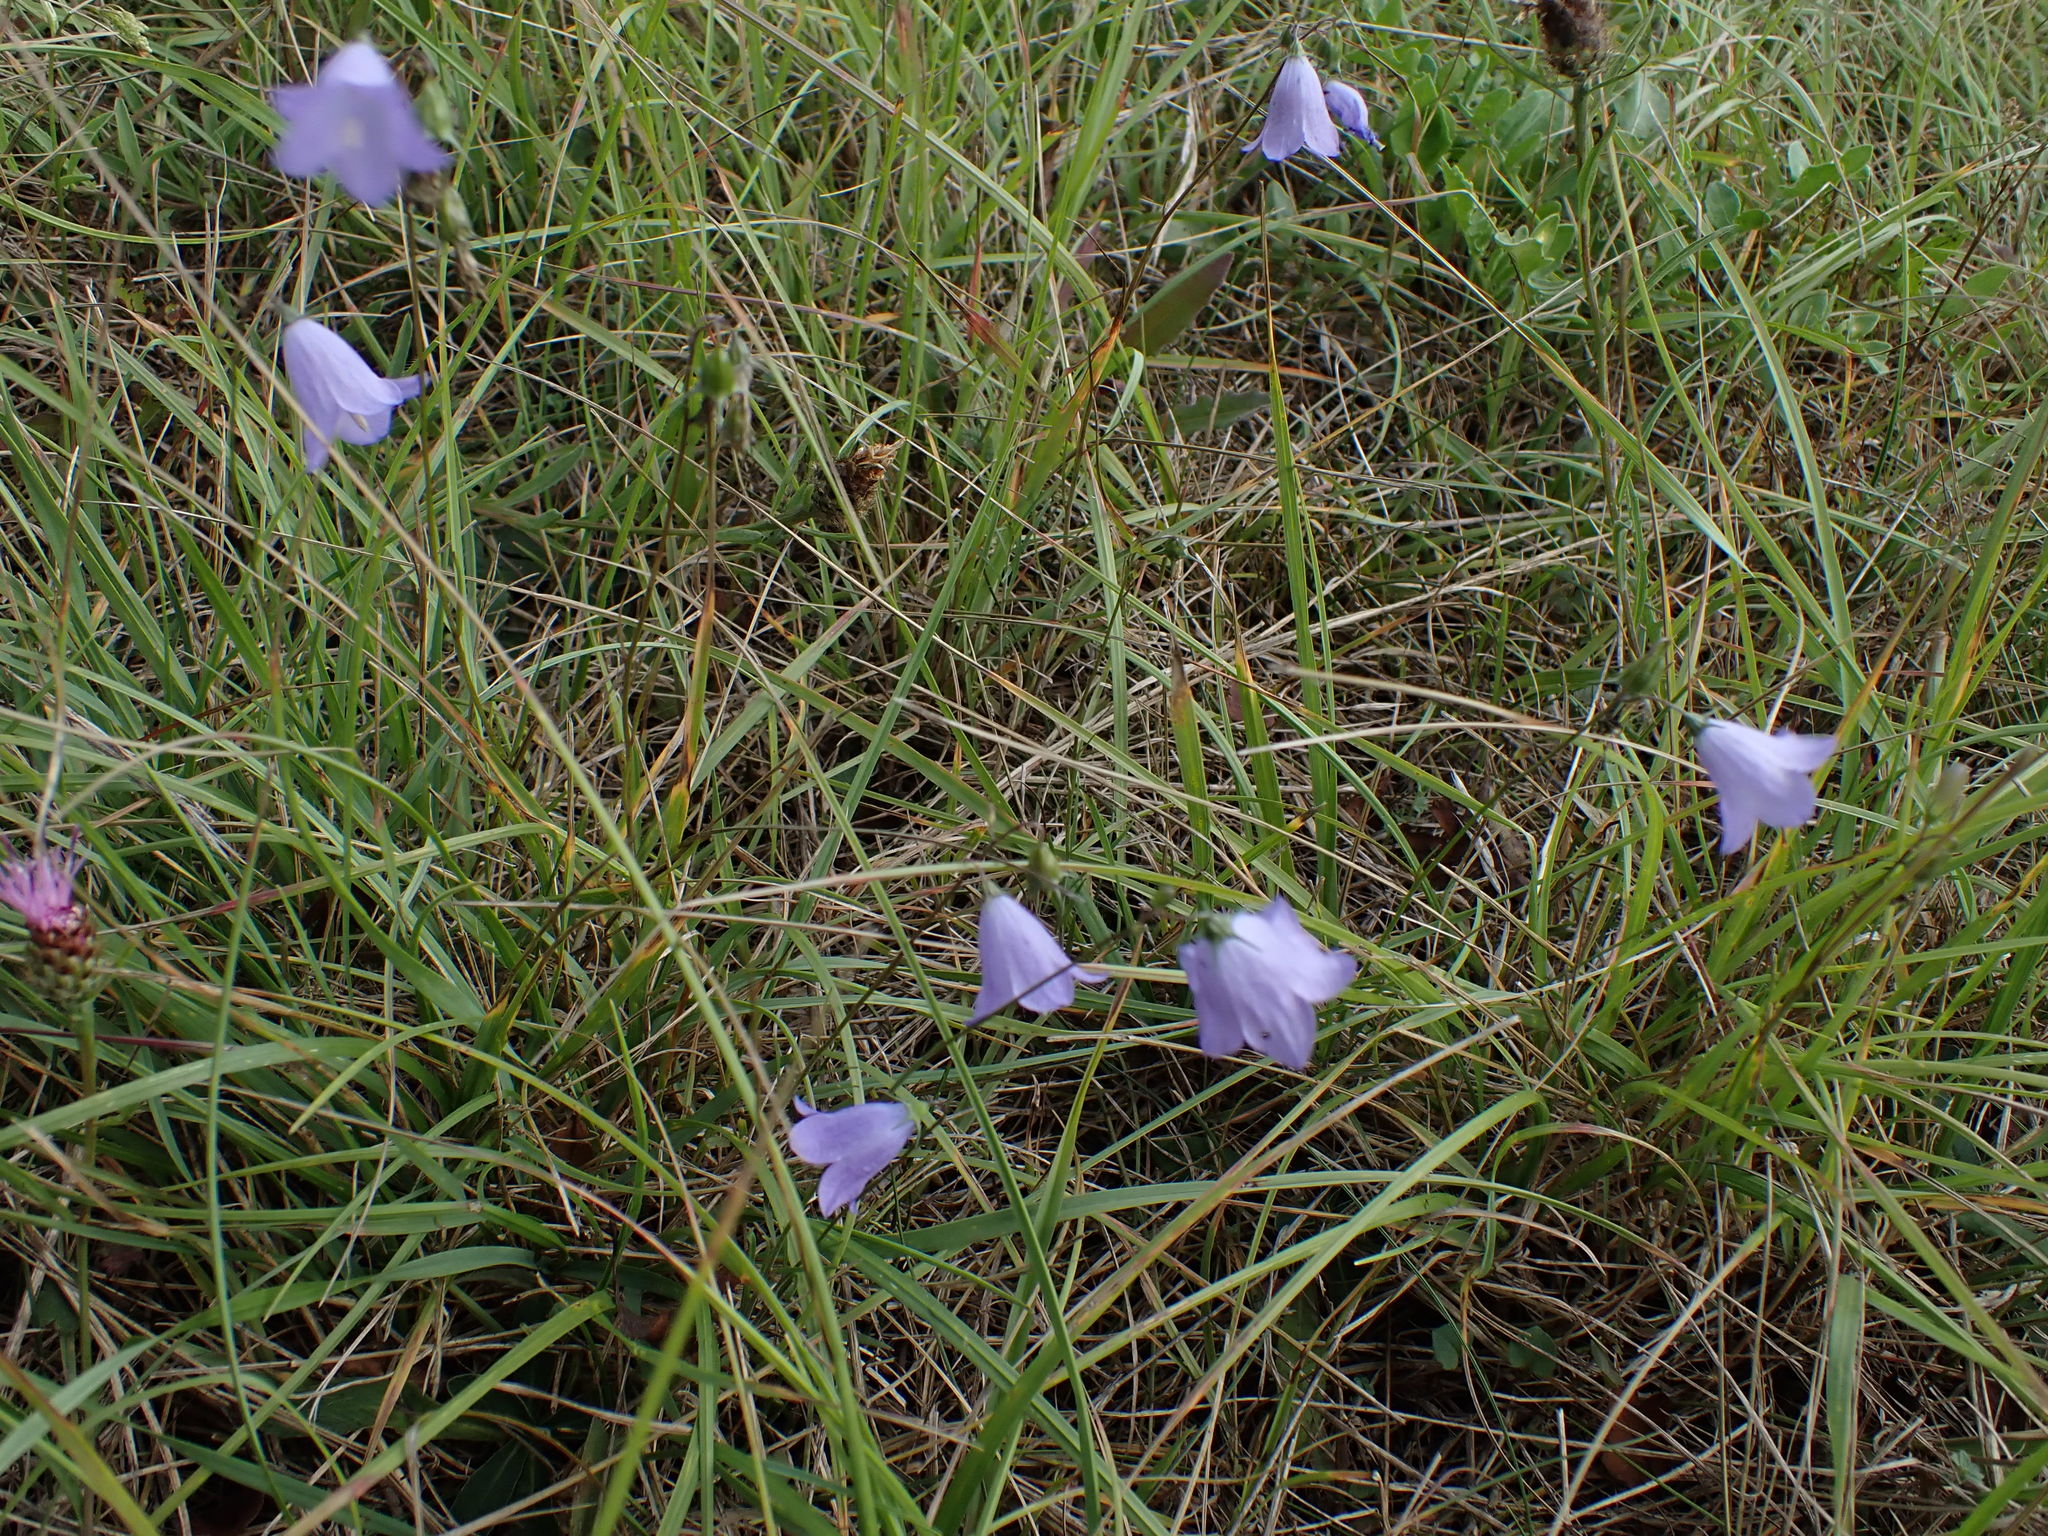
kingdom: Plantae
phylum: Tracheophyta
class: Magnoliopsida
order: Asterales
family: Campanulaceae
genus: Campanula
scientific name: Campanula rotundifolia
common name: Harebell
